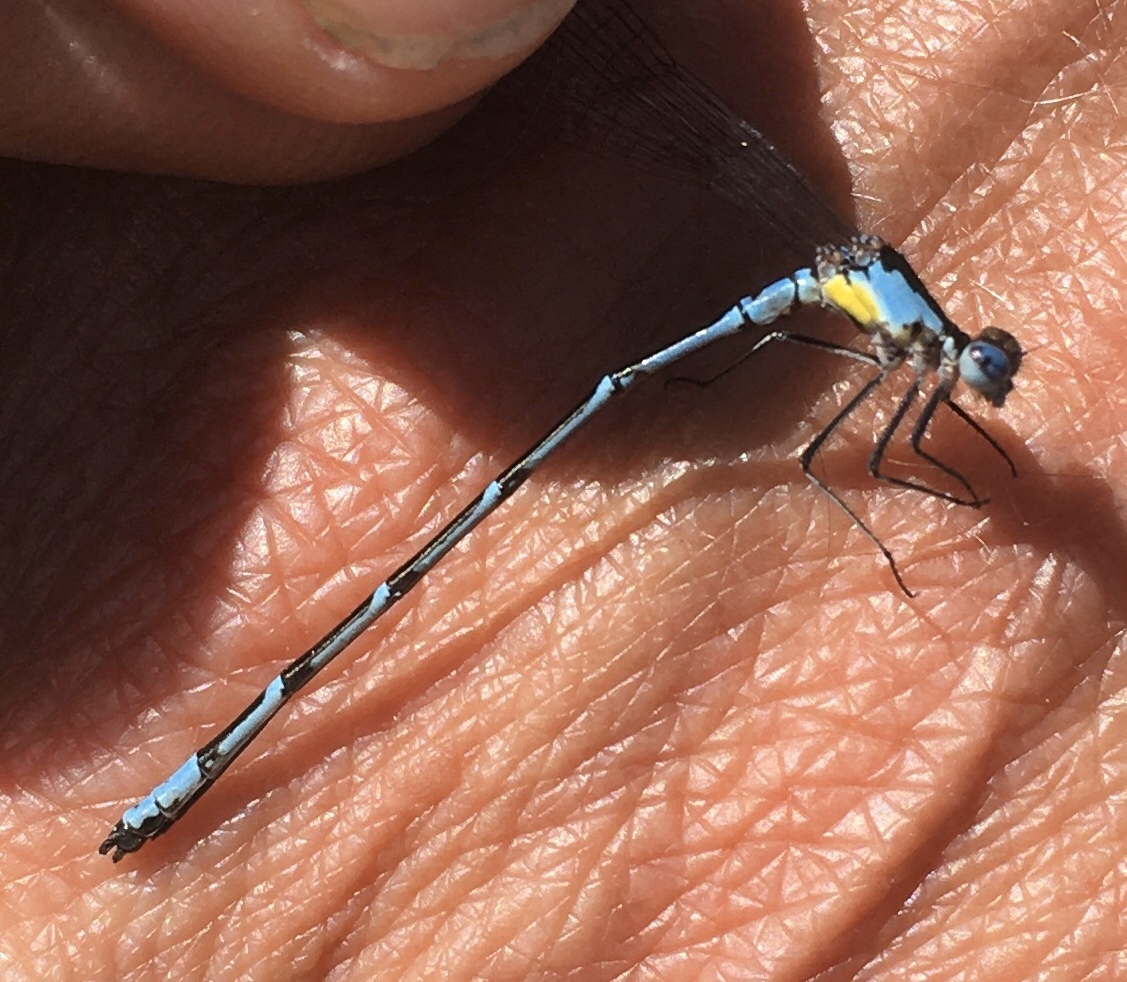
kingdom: Animalia
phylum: Arthropoda
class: Insecta
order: Odonata
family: Coenagrionidae
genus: Chromagrion
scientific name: Chromagrion conditum
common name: Aurora damsel
